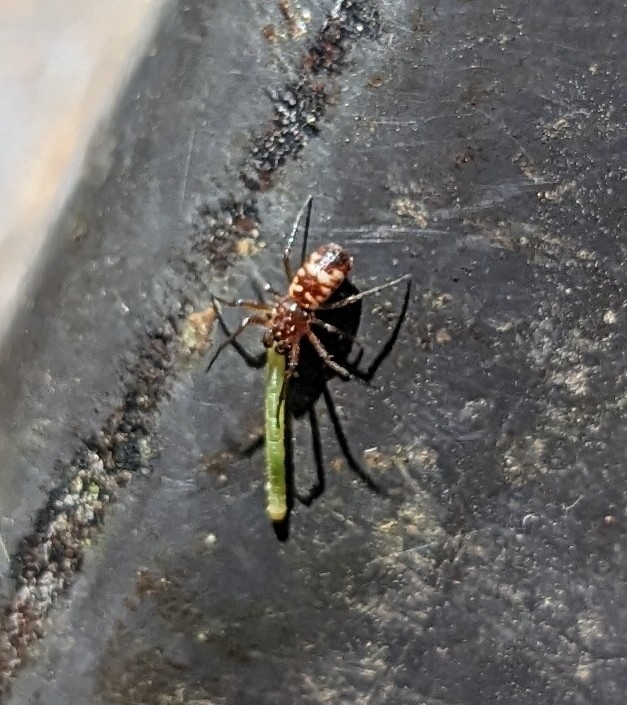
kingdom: Animalia
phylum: Arthropoda
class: Arachnida
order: Araneae
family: Araneidae
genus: Micrathena
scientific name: Micrathena mitrata
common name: Orb weavers
